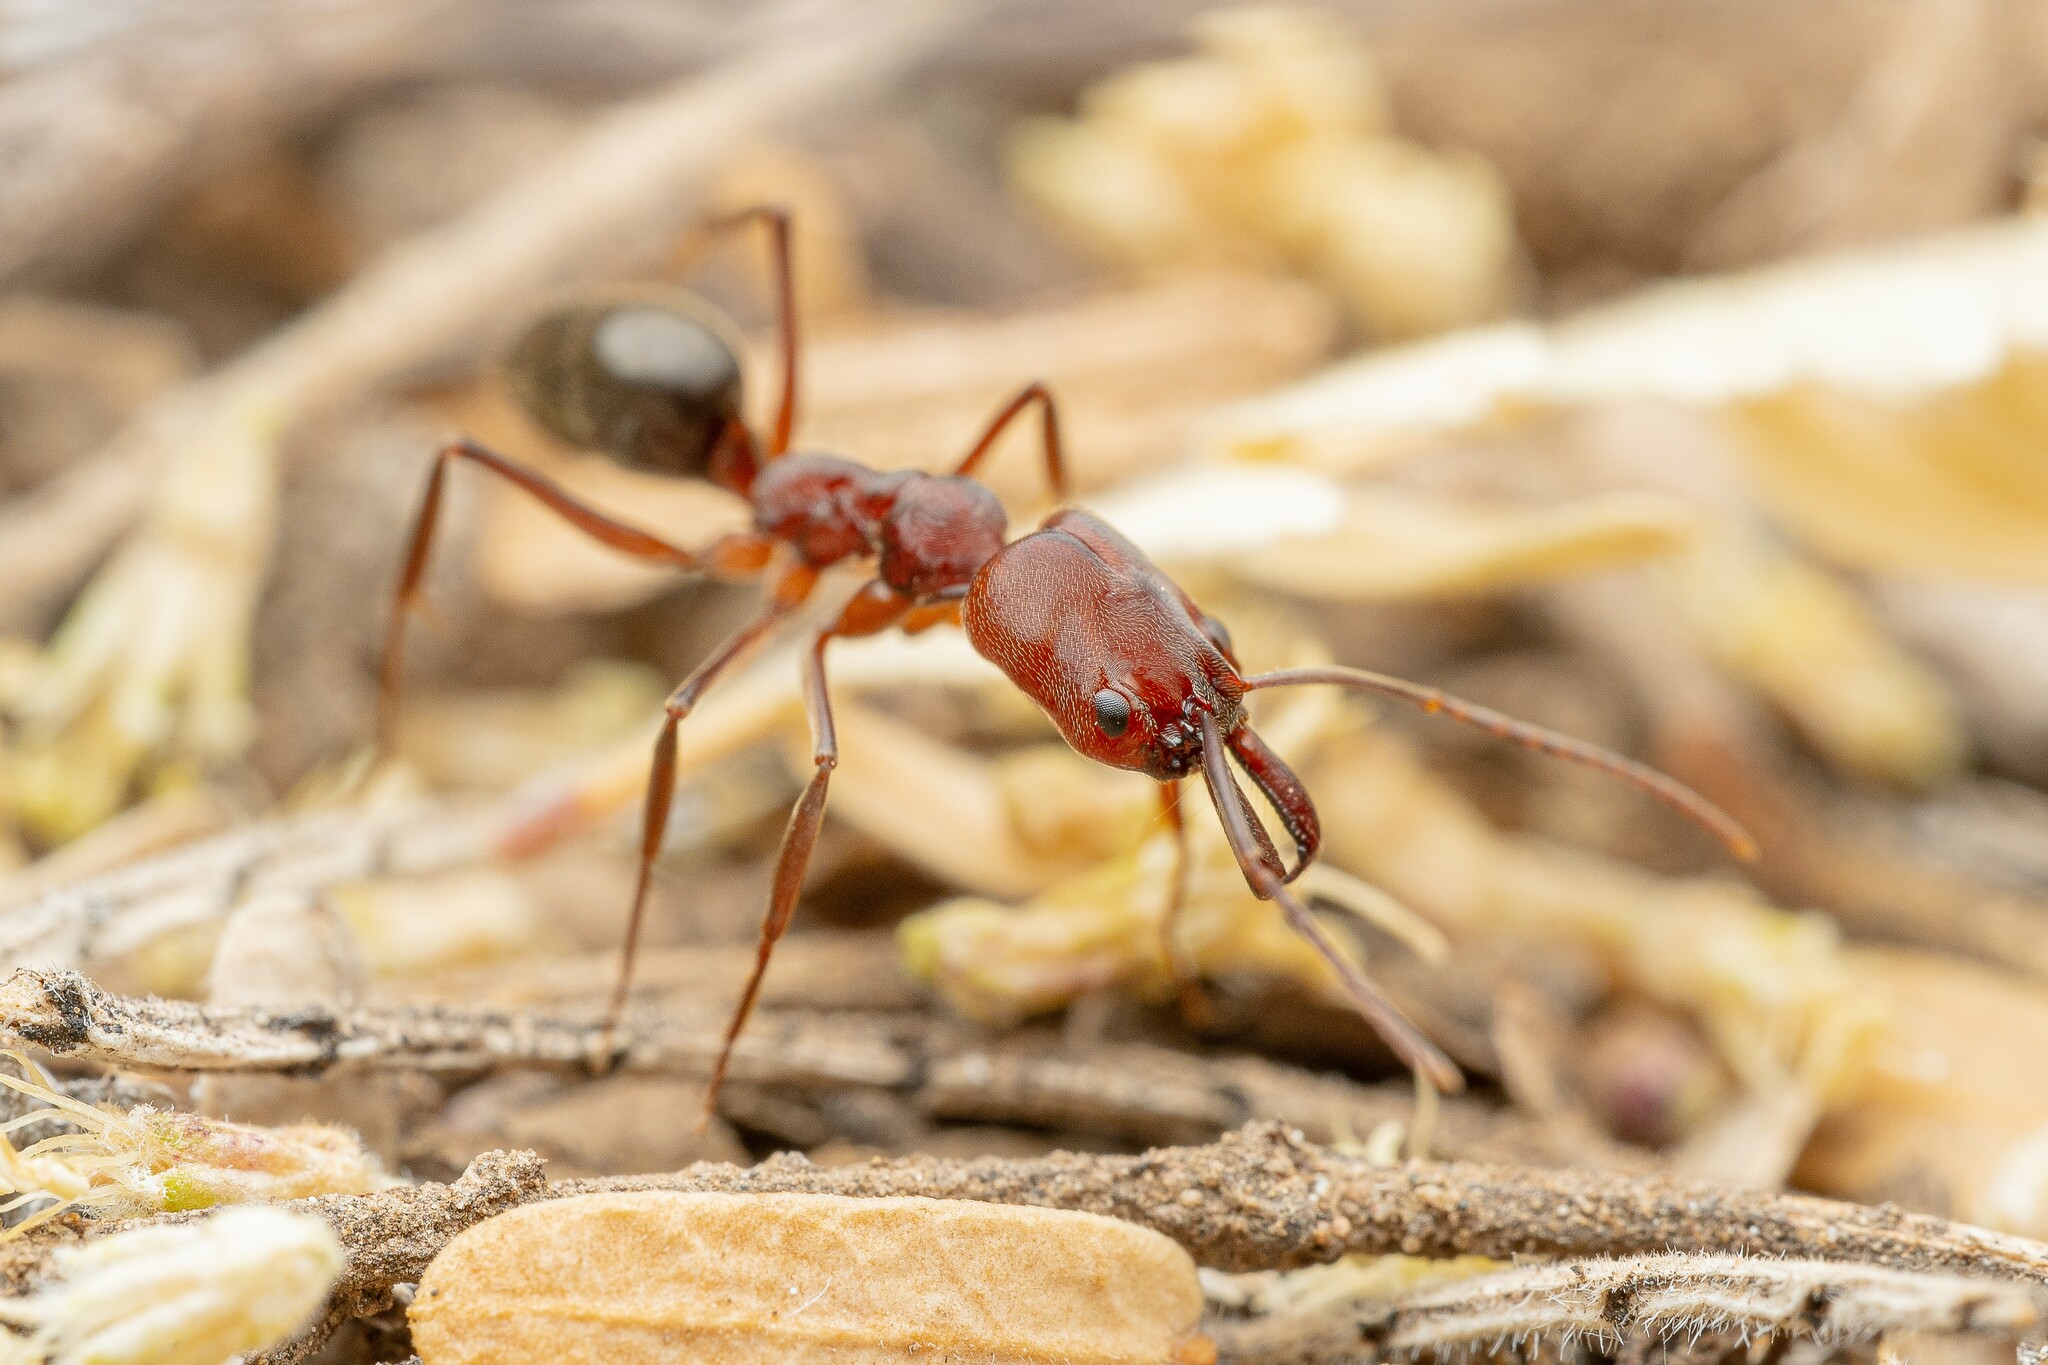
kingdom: Animalia
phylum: Arthropoda
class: Insecta
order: Hymenoptera
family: Formicidae
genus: Odontomachus
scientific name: Odontomachus
